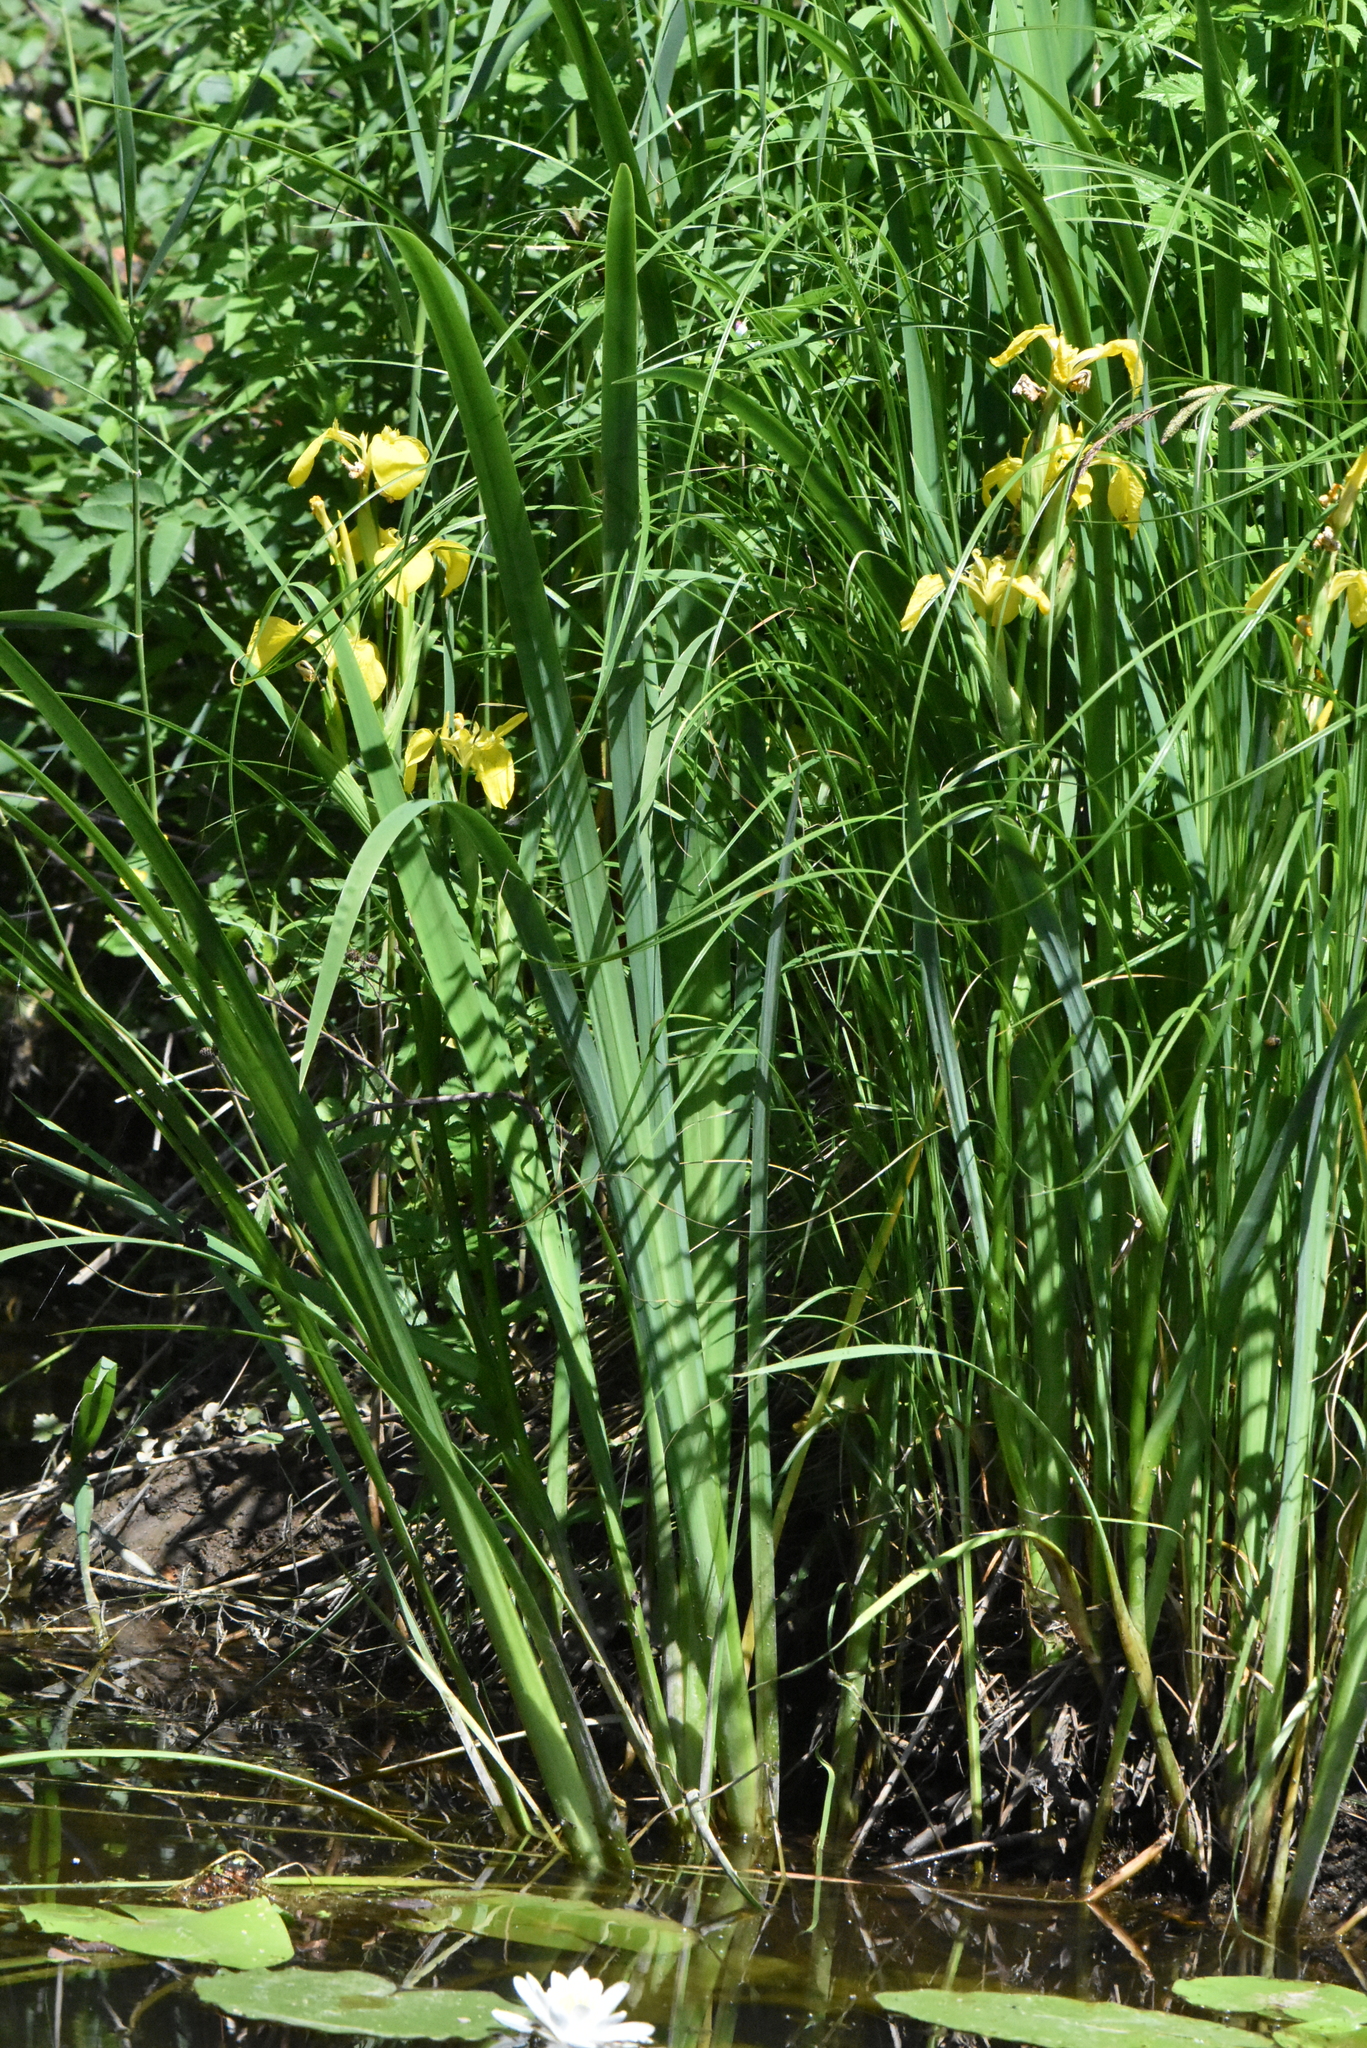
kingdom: Plantae
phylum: Tracheophyta
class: Liliopsida
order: Asparagales
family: Iridaceae
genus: Iris
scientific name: Iris pseudacorus
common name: Yellow flag
